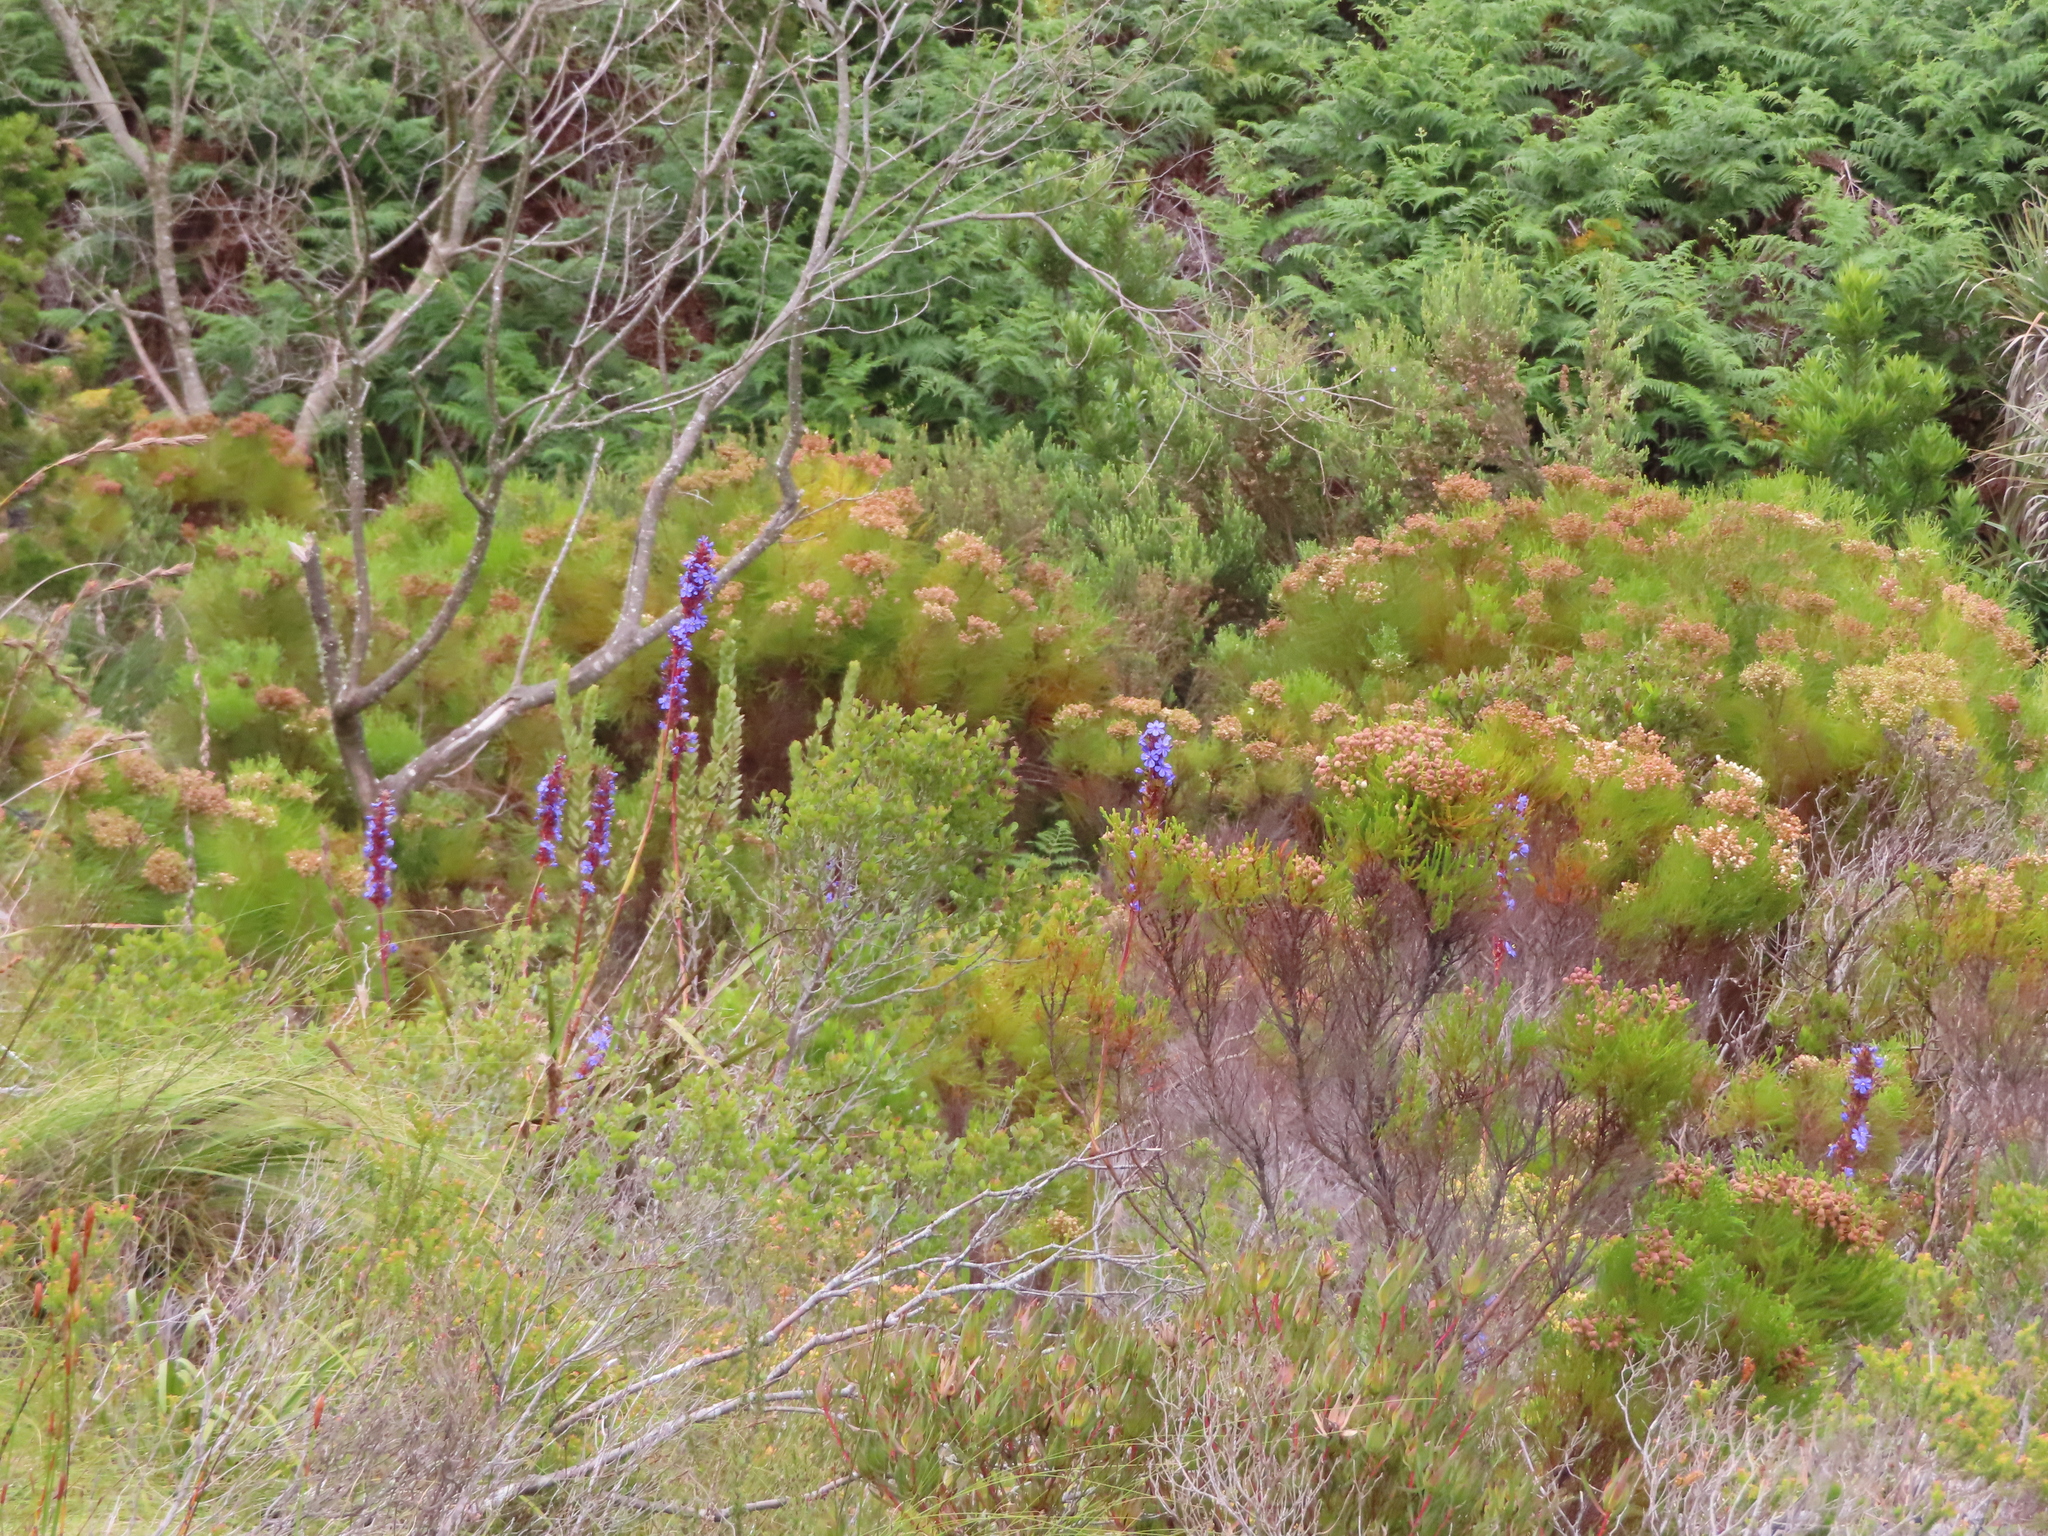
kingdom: Plantae
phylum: Tracheophyta
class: Liliopsida
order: Asparagales
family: Iridaceae
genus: Aristea
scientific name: Aristea capitata
